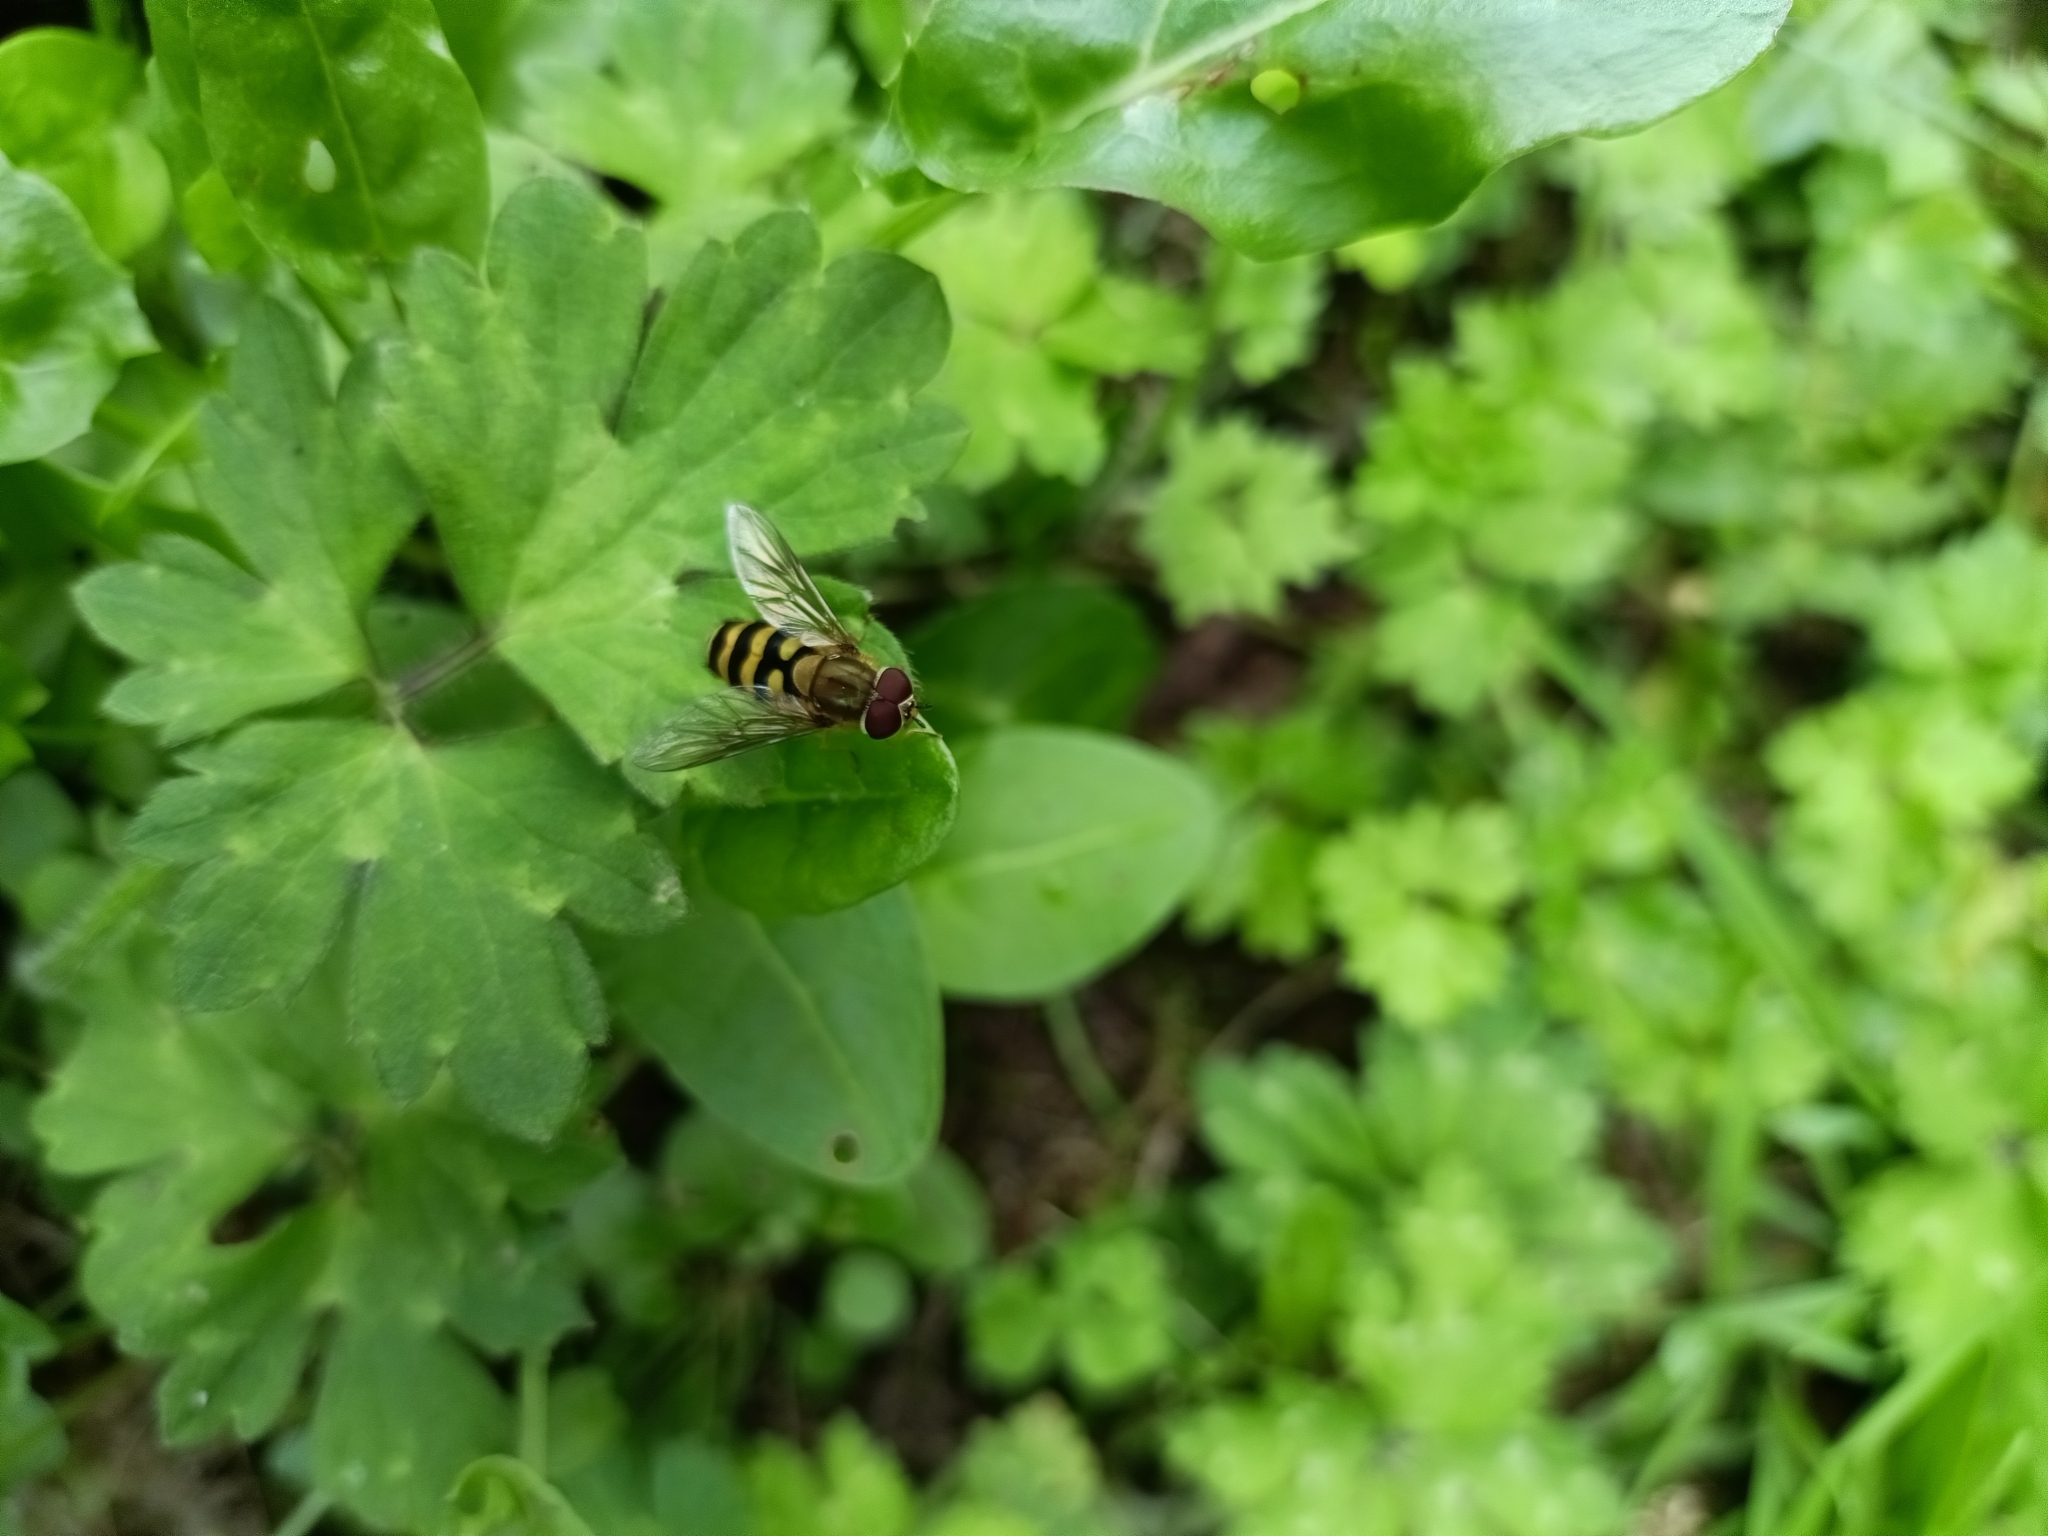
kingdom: Animalia
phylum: Arthropoda
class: Insecta
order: Diptera
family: Syrphidae
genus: Syrphus
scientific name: Syrphus
